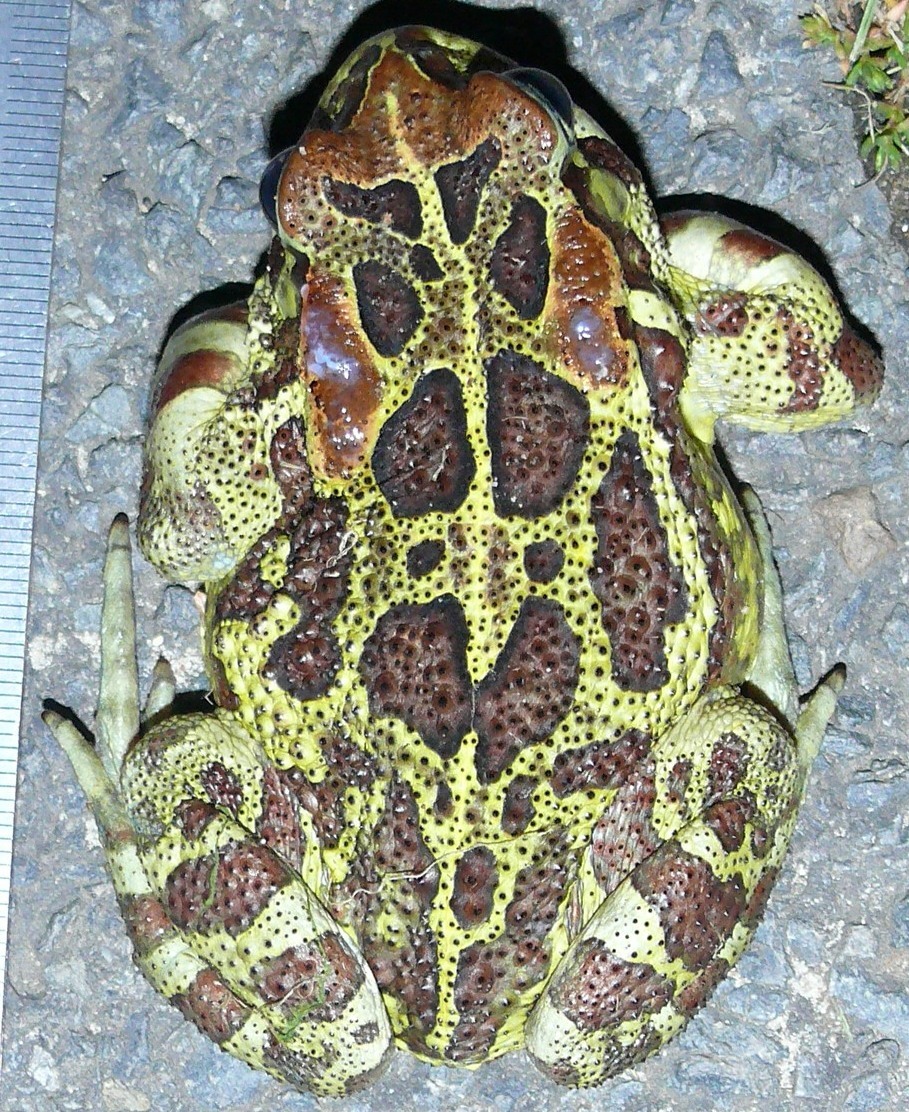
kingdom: Animalia
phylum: Chordata
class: Amphibia
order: Anura
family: Bufonidae
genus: Sclerophrys
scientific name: Sclerophrys pantherina
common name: Panther toad
